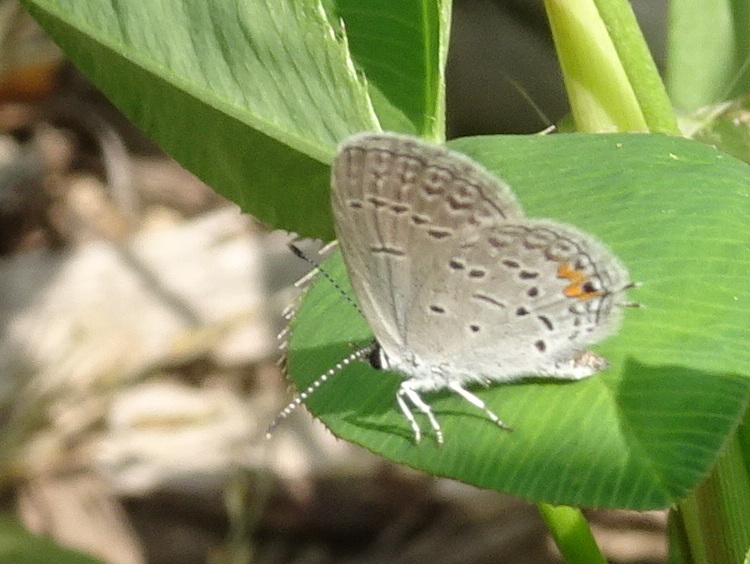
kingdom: Animalia
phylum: Arthropoda
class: Insecta
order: Lepidoptera
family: Lycaenidae
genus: Elkalyce
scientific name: Elkalyce comyntas
